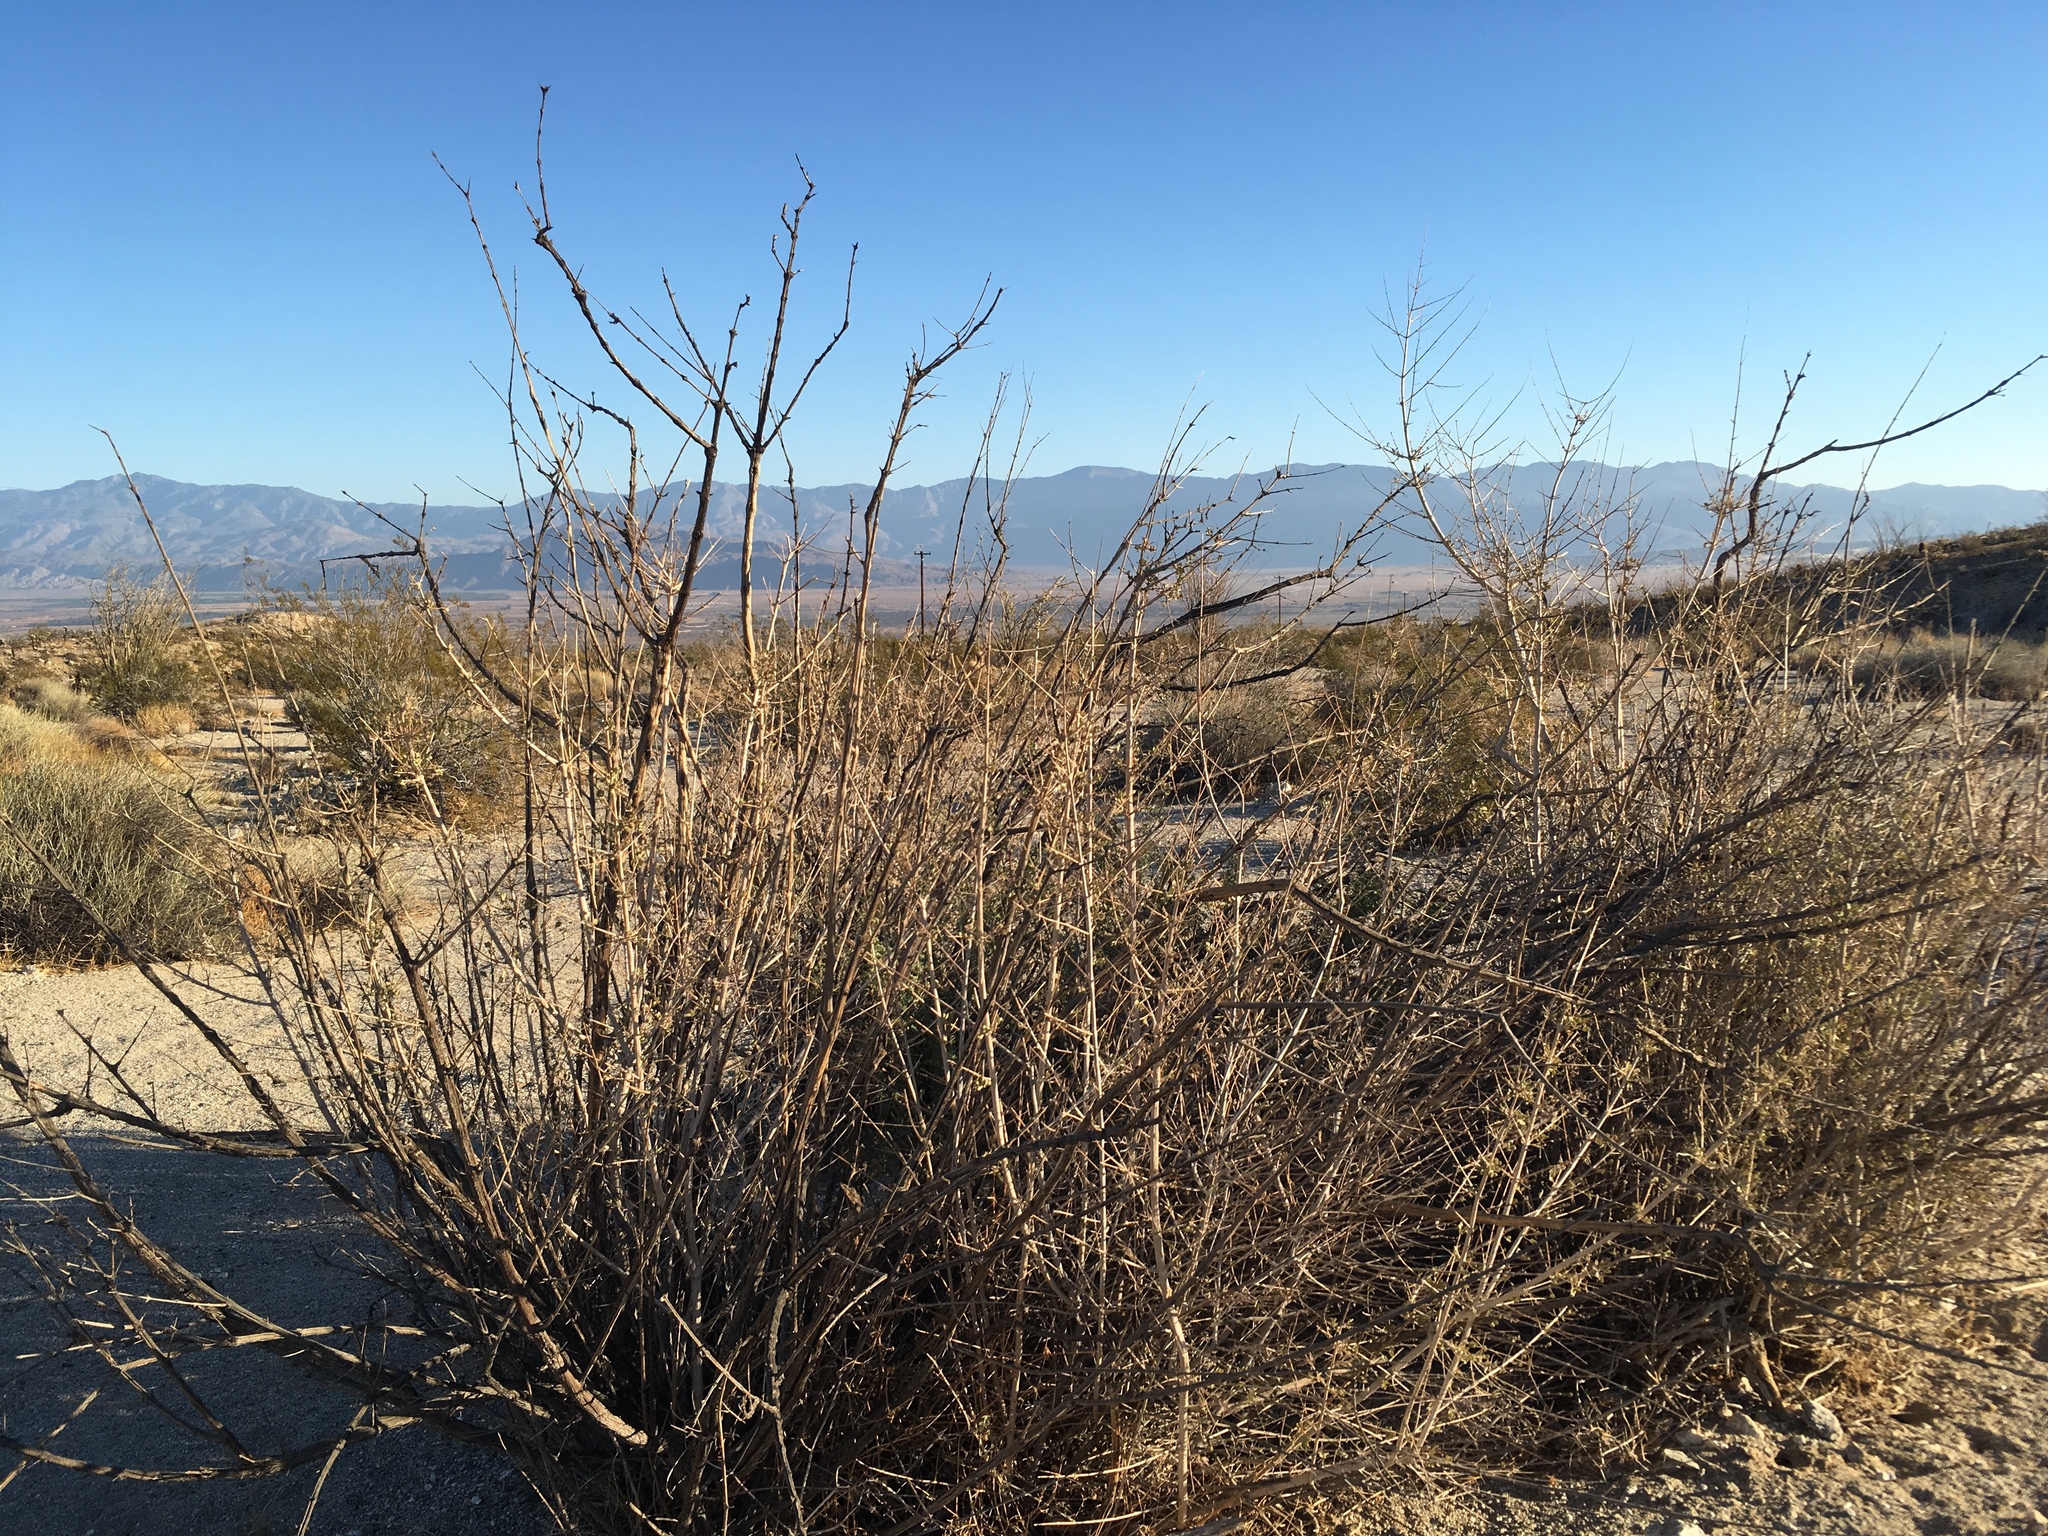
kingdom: Plantae
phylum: Tracheophyta
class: Magnoliopsida
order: Lamiales
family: Lamiaceae
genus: Condea
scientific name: Condea emoryi
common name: Chia
